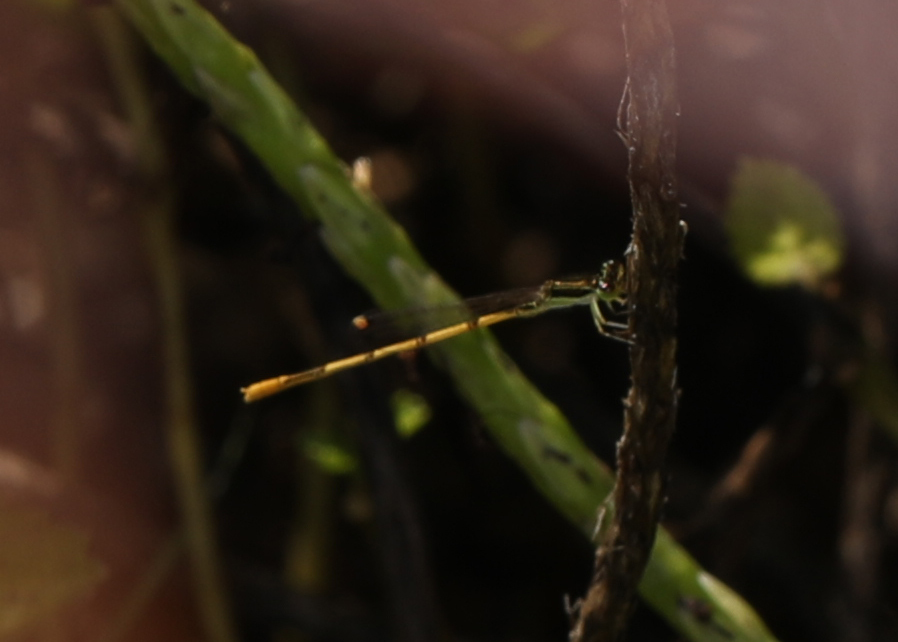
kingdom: Animalia
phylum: Arthropoda
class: Insecta
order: Odonata
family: Coenagrionidae
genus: Ischnura
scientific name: Ischnura hastata
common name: Citrine forktail
